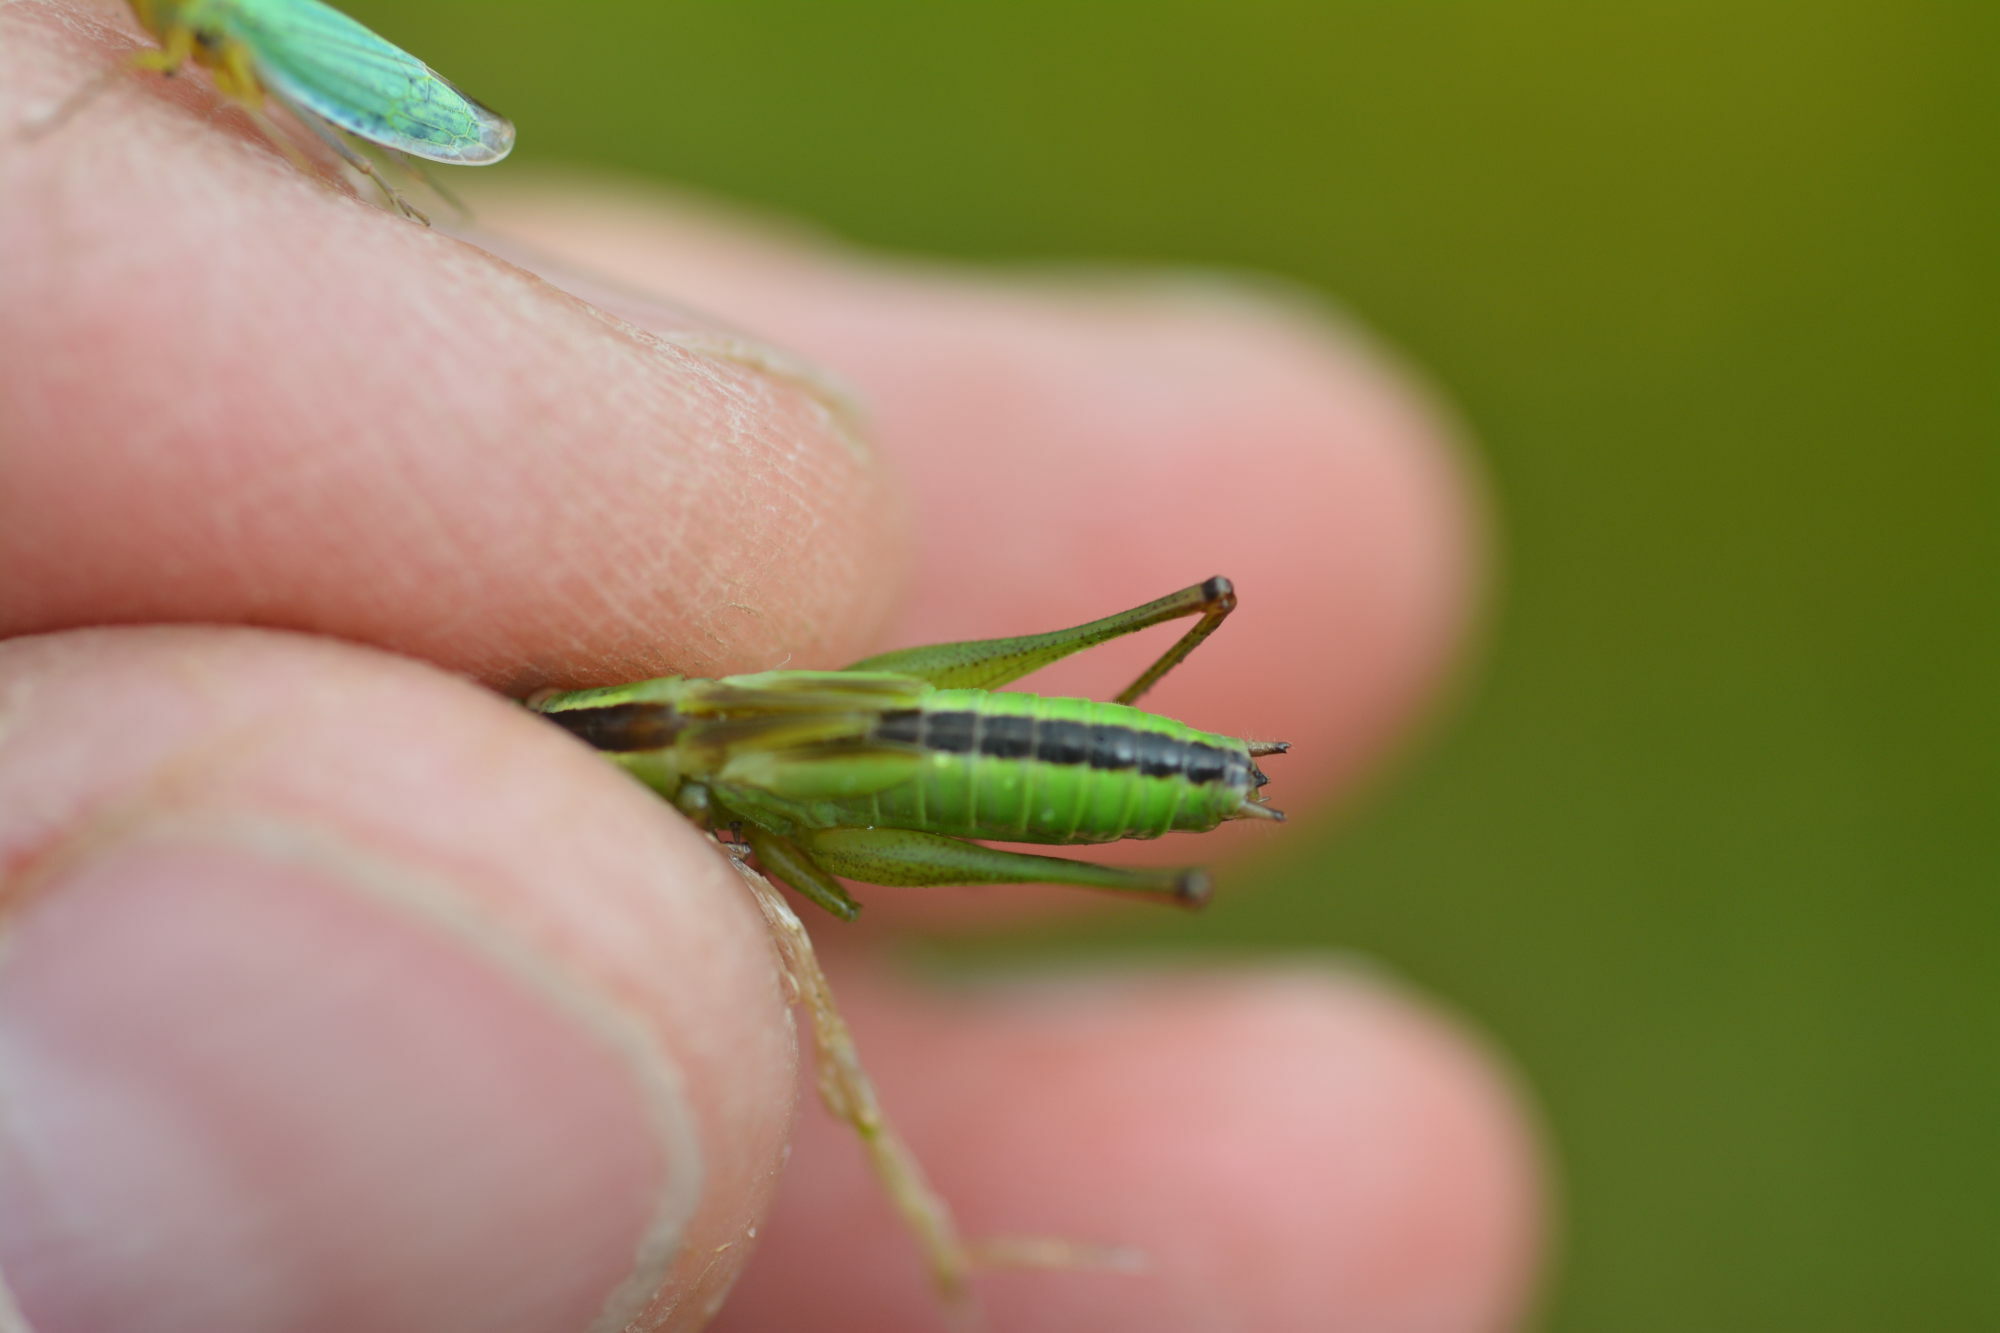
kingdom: Animalia
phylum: Arthropoda
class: Insecta
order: Orthoptera
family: Tettigoniidae
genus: Conocephalus
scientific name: Conocephalus fuscus
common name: Long-winged conehead
